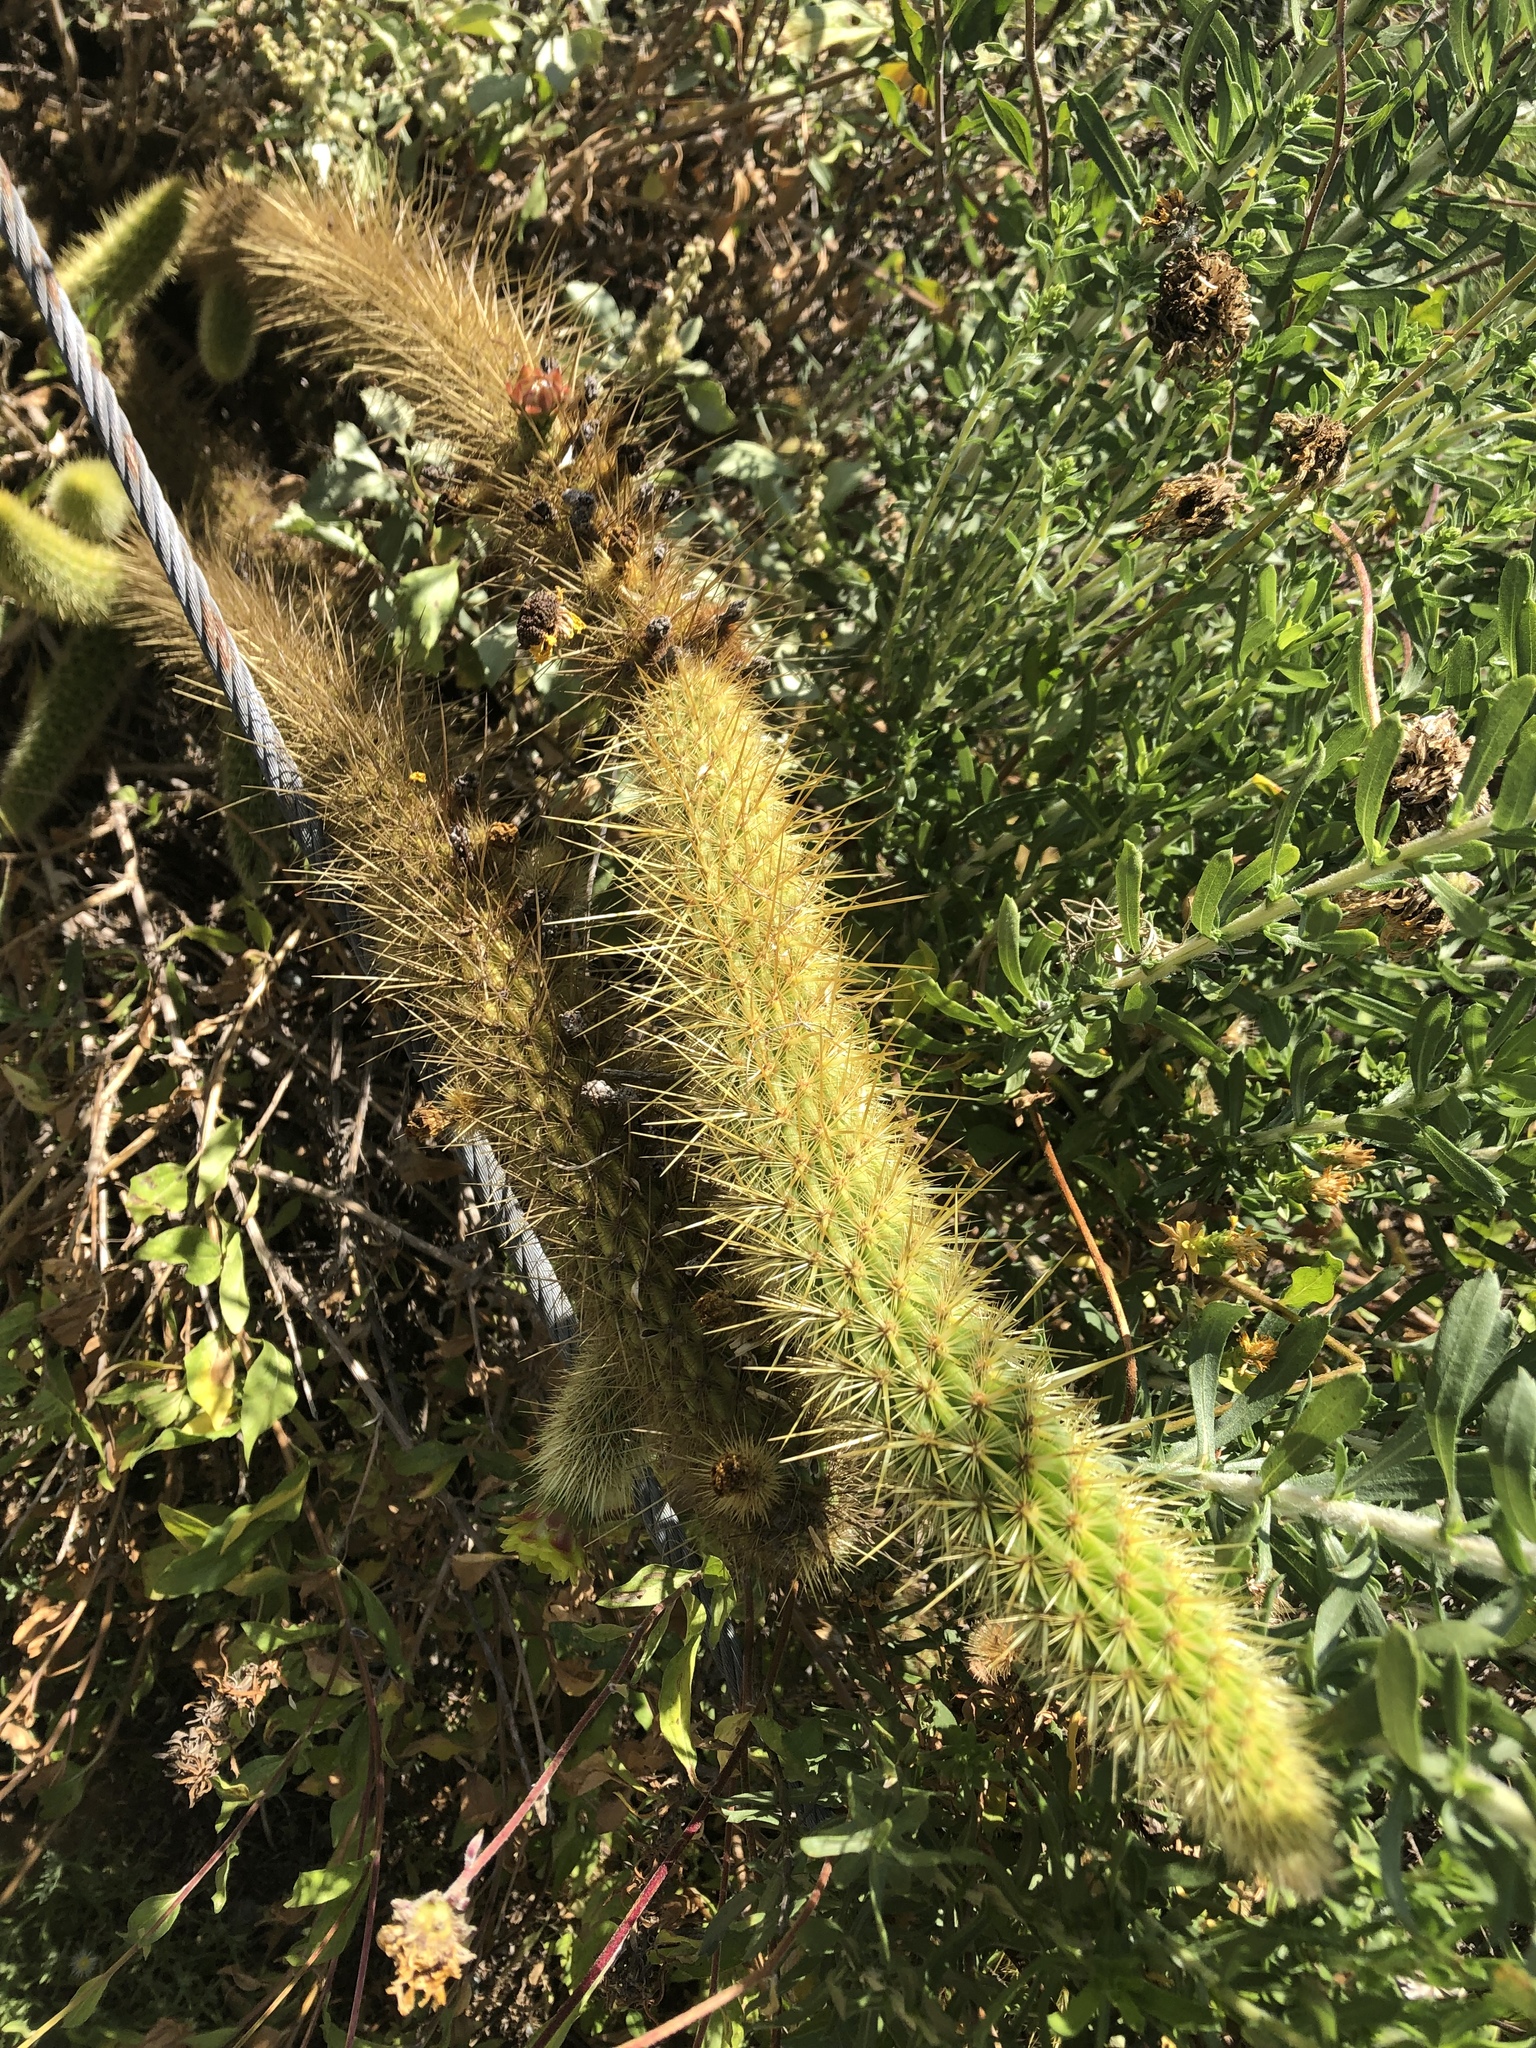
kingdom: Plantae
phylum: Tracheophyta
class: Magnoliopsida
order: Caryophyllales
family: Cactaceae
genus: Bergerocactus
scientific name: Bergerocactus emoryi
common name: Golden snakecactus
